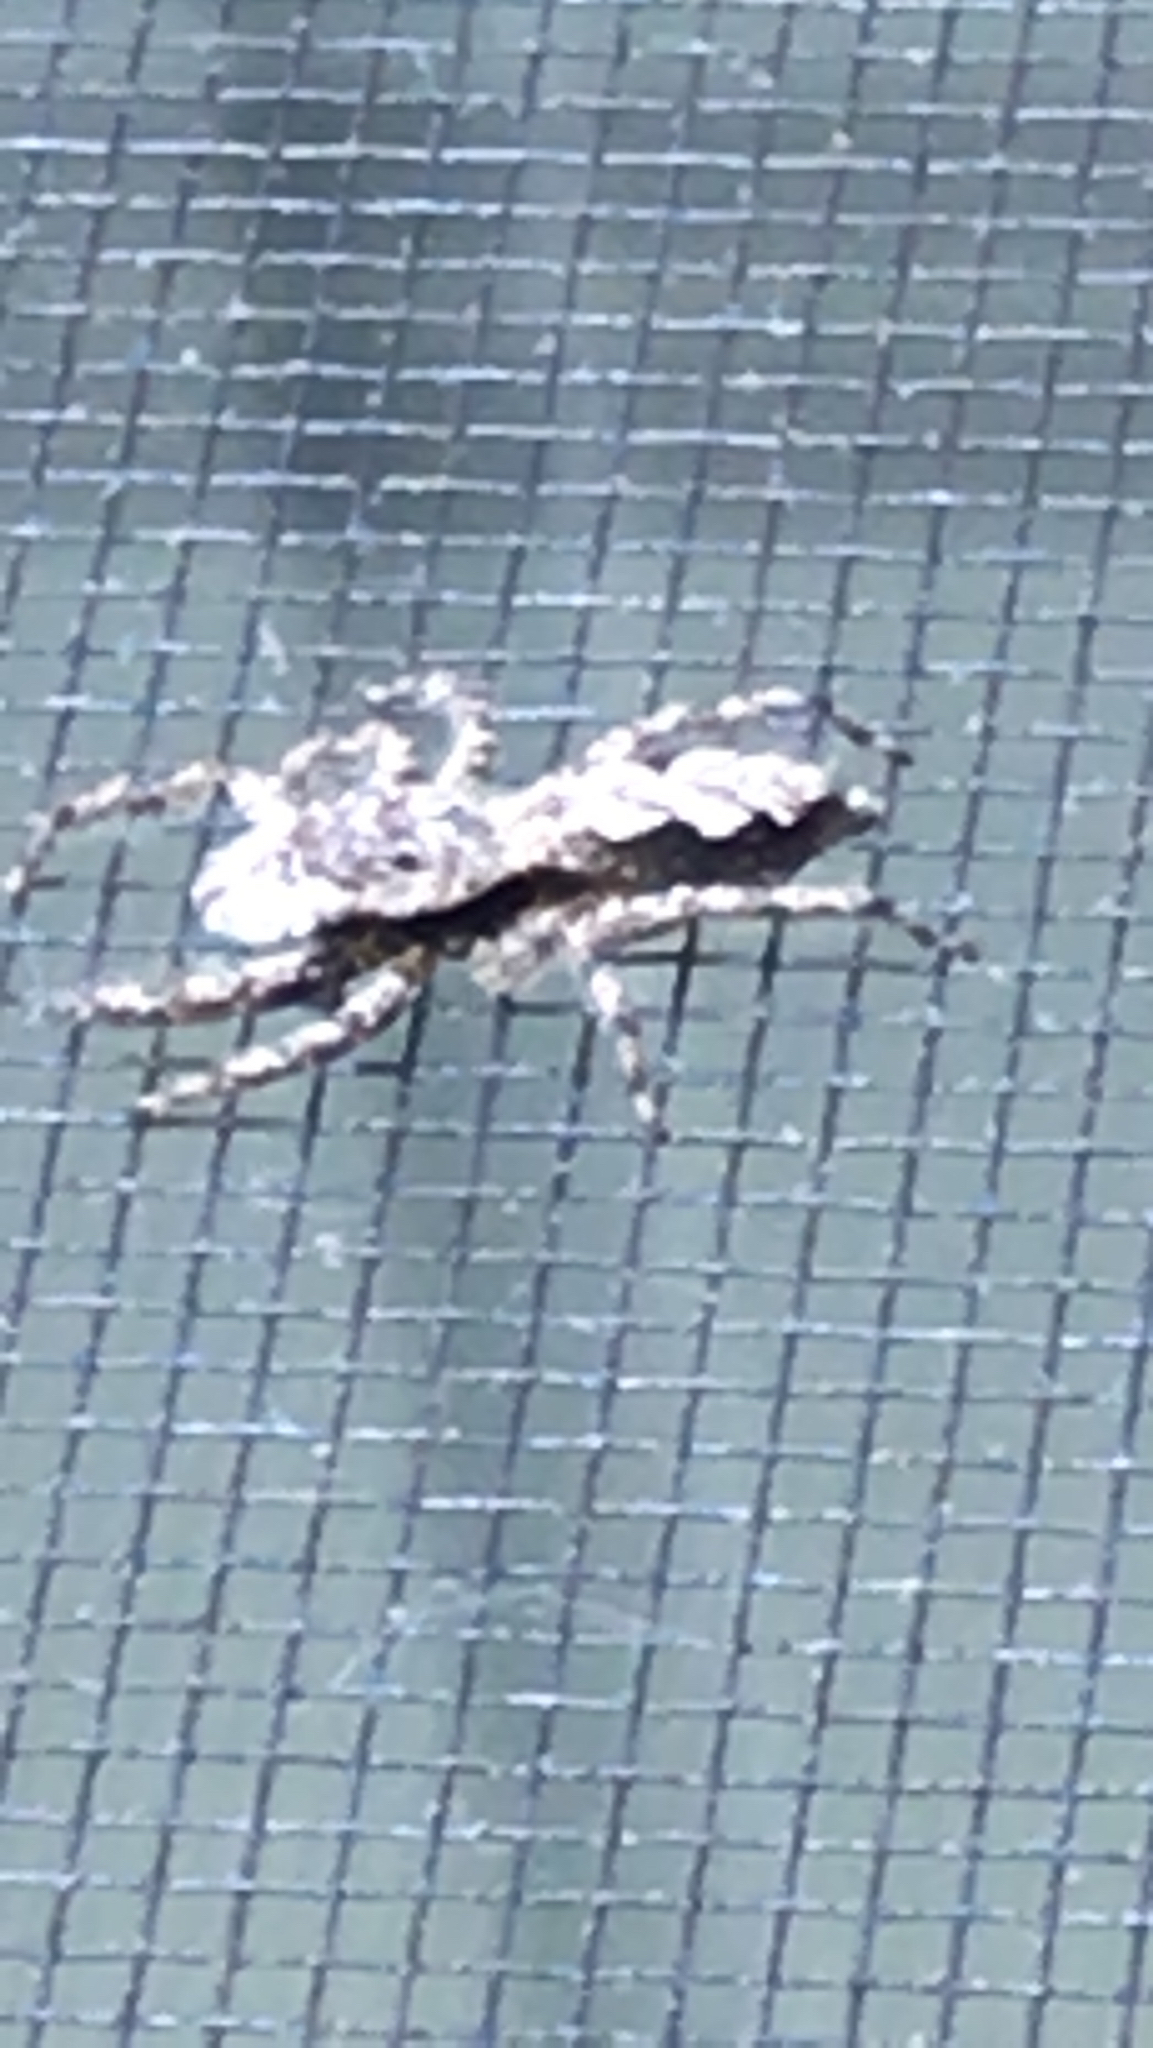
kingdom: Animalia
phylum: Arthropoda
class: Arachnida
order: Araneae
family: Salticidae
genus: Platycryptus
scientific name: Platycryptus undatus
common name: Tan jumping spider
